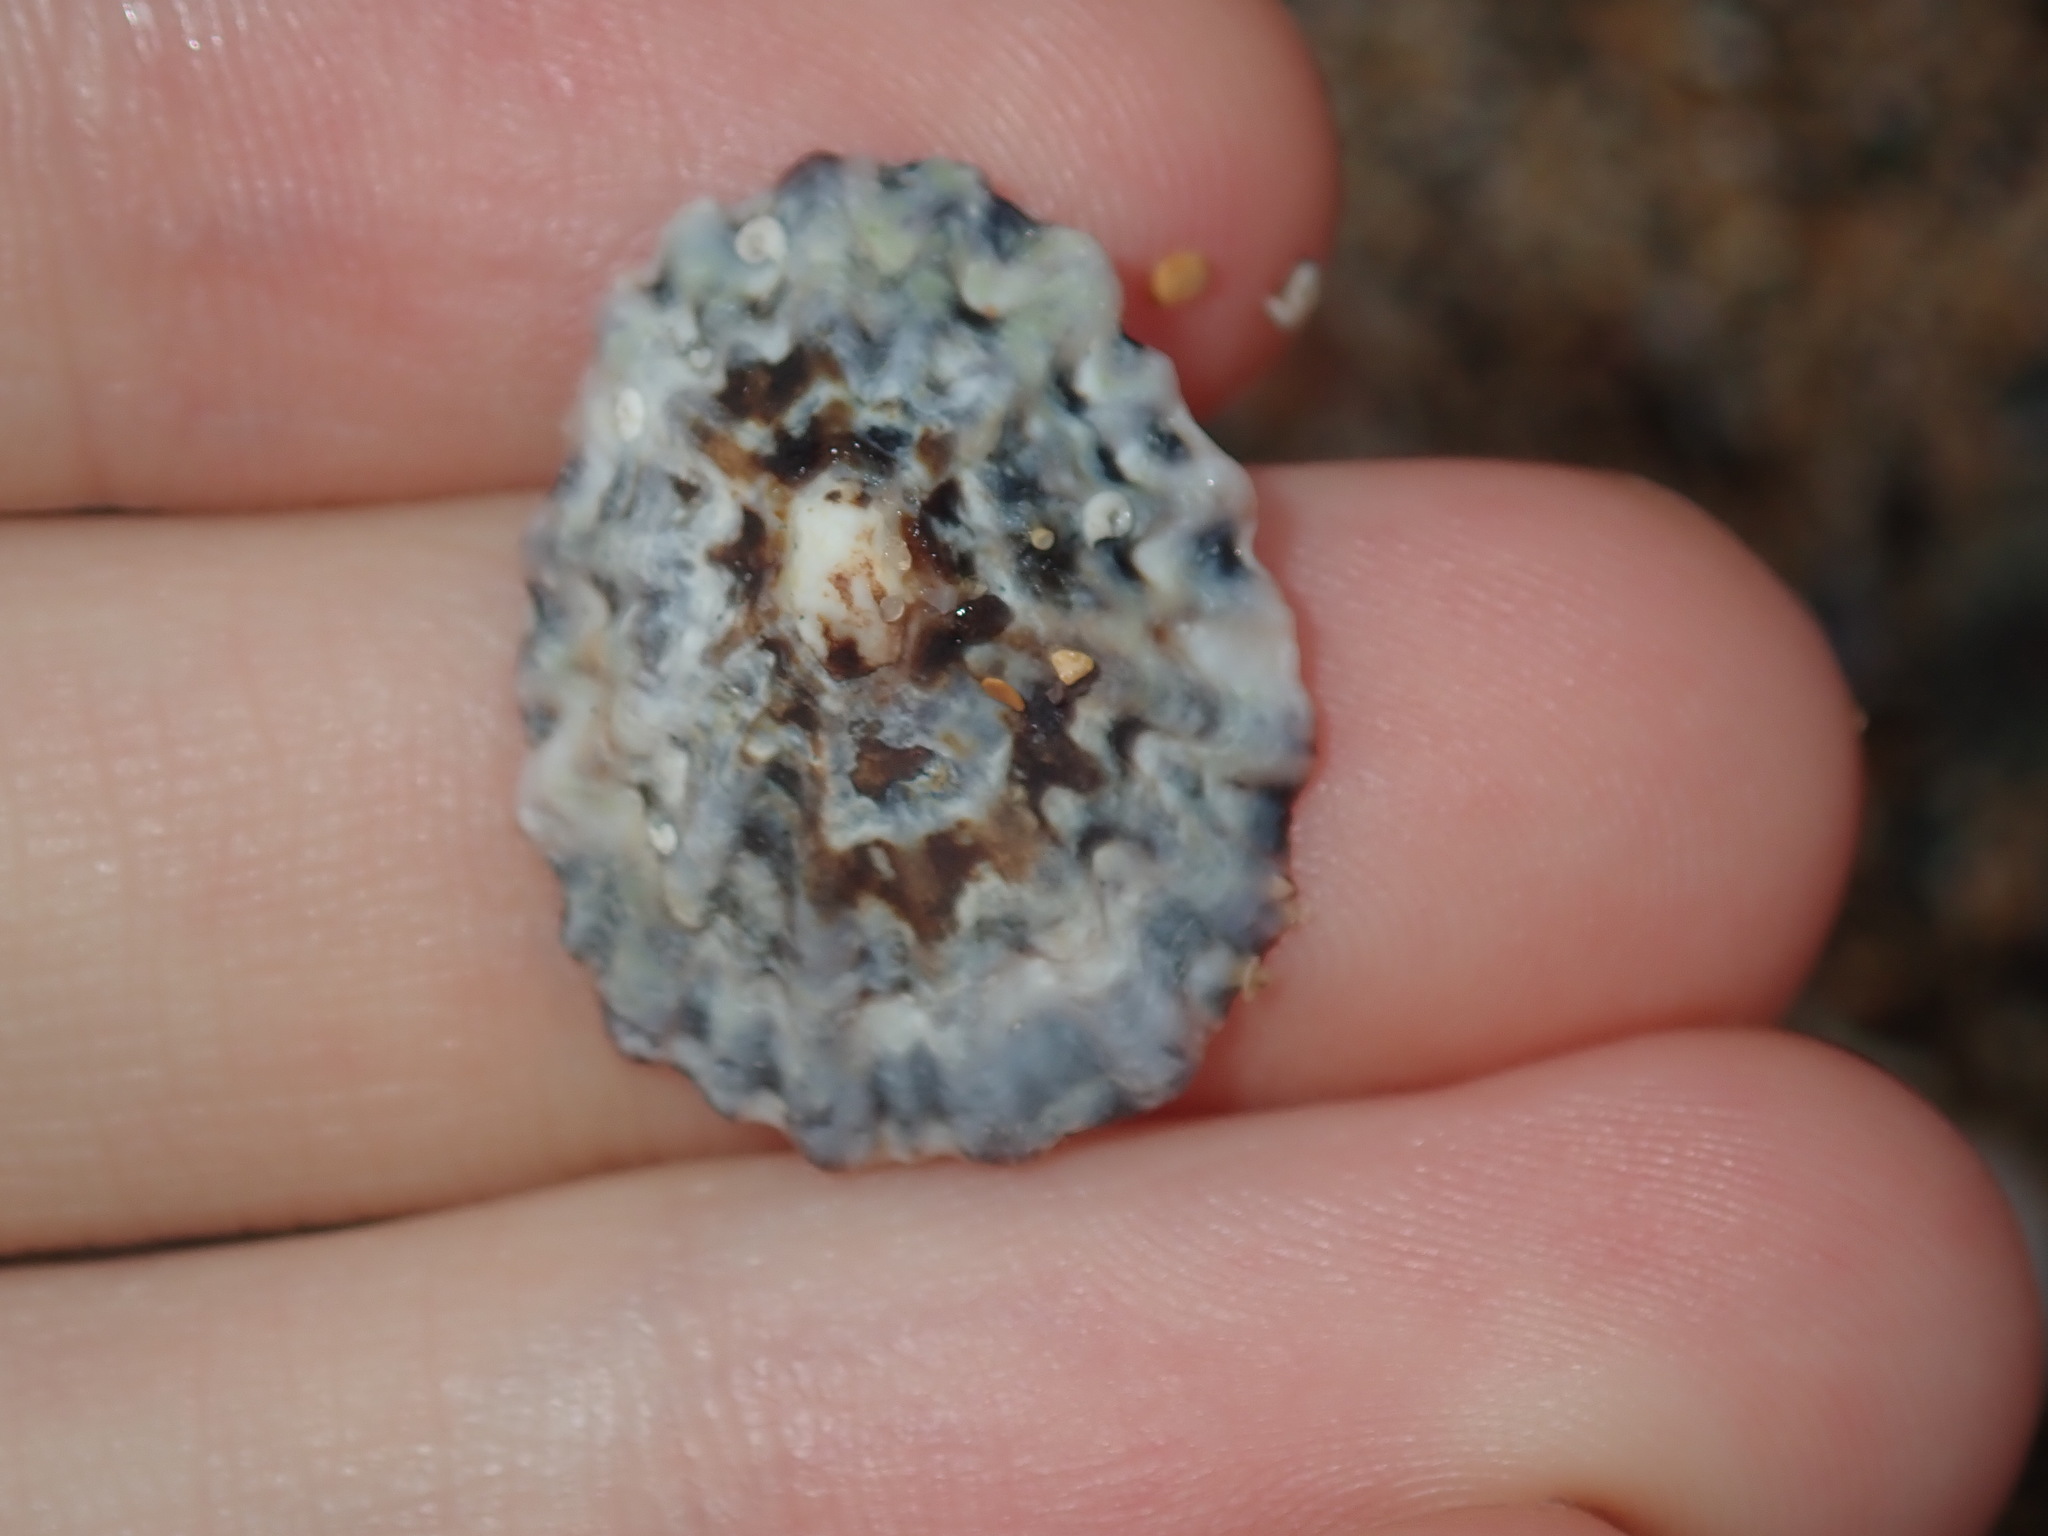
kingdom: Animalia
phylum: Mollusca
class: Gastropoda
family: Lottiidae
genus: Patelloida
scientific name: Patelloida alticostata
